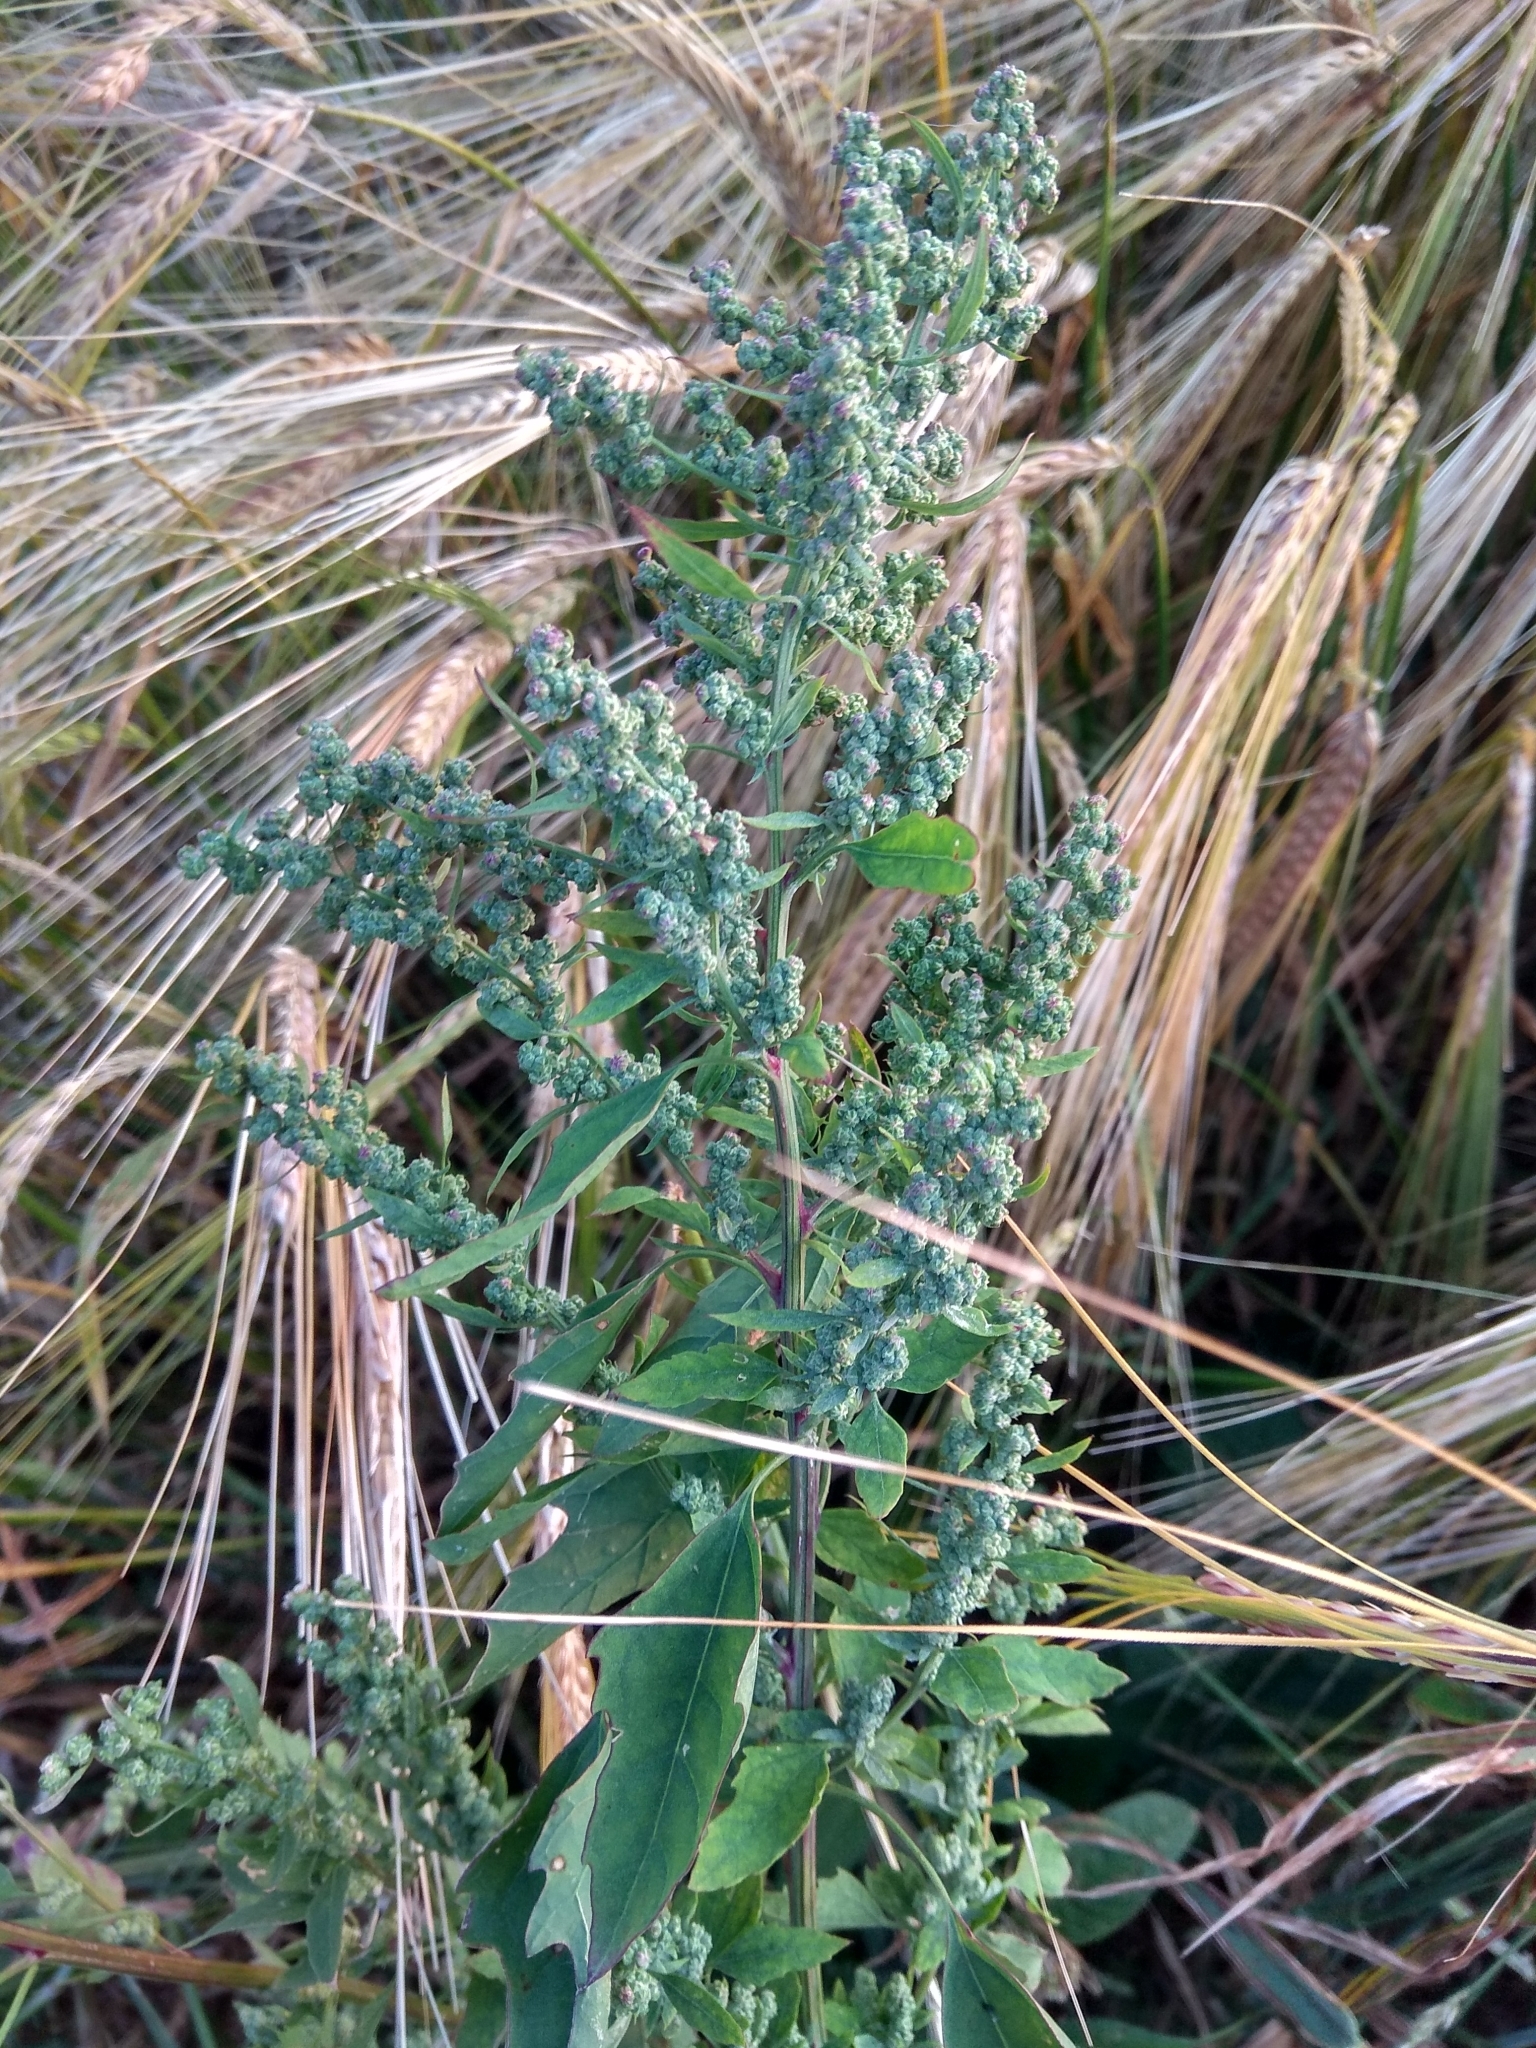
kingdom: Plantae
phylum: Tracheophyta
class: Magnoliopsida
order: Caryophyllales
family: Amaranthaceae
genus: Chenopodium
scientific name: Chenopodium album
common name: Fat-hen
